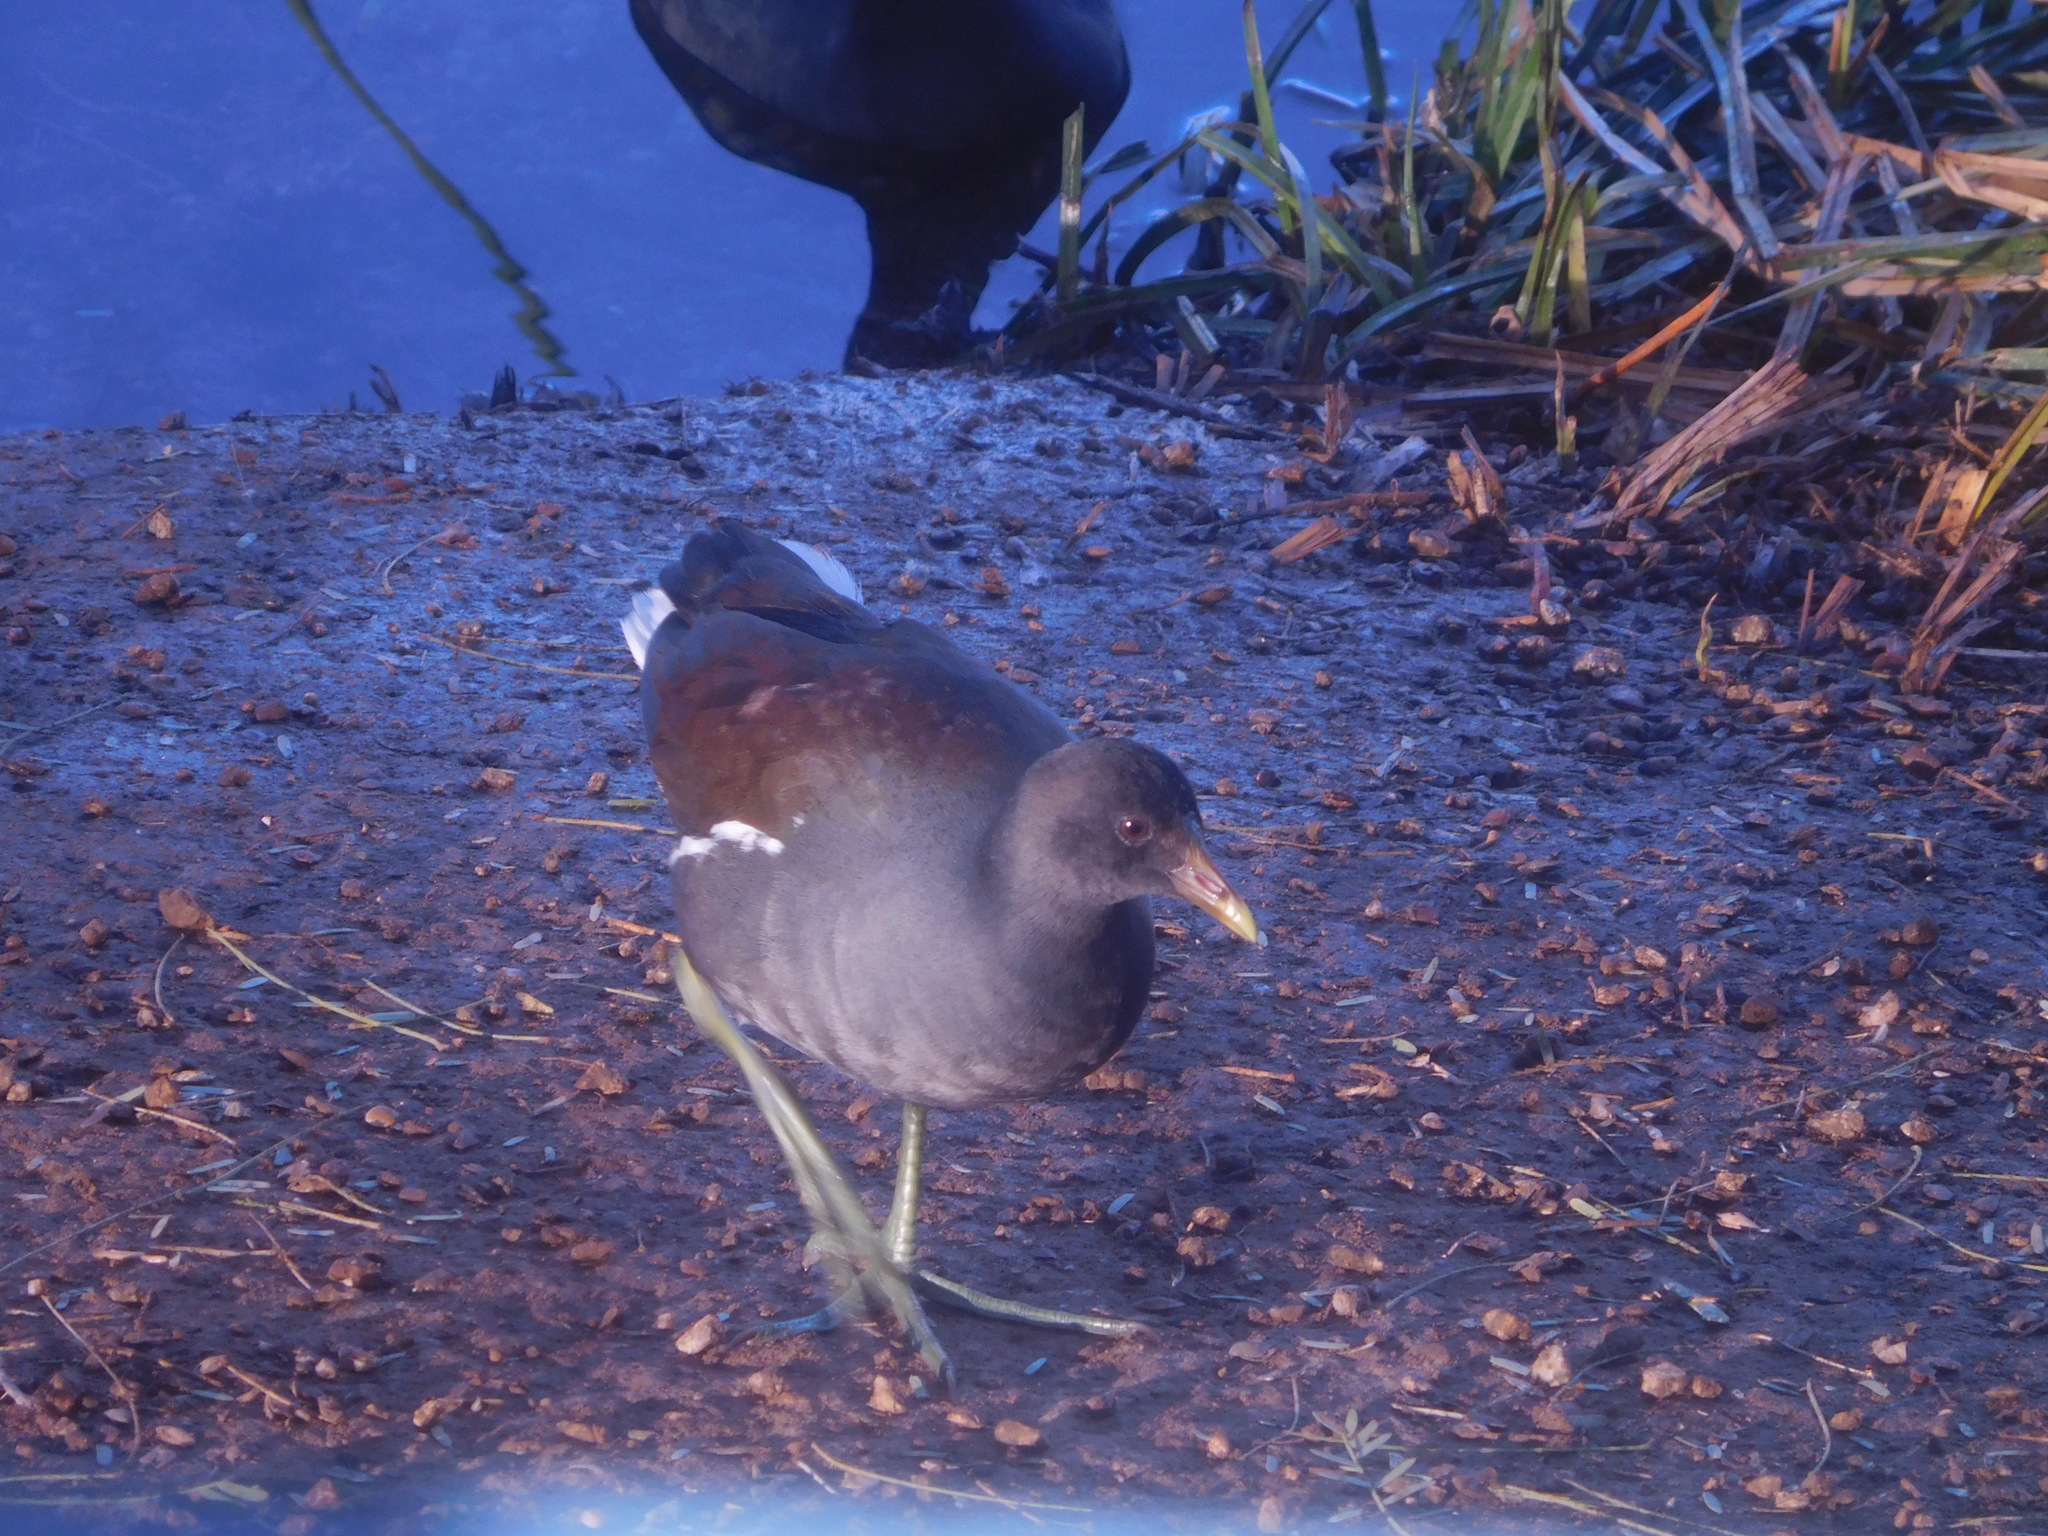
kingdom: Animalia
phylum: Chordata
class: Aves
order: Gruiformes
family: Rallidae
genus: Gallinula
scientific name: Gallinula chloropus
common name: Common moorhen
